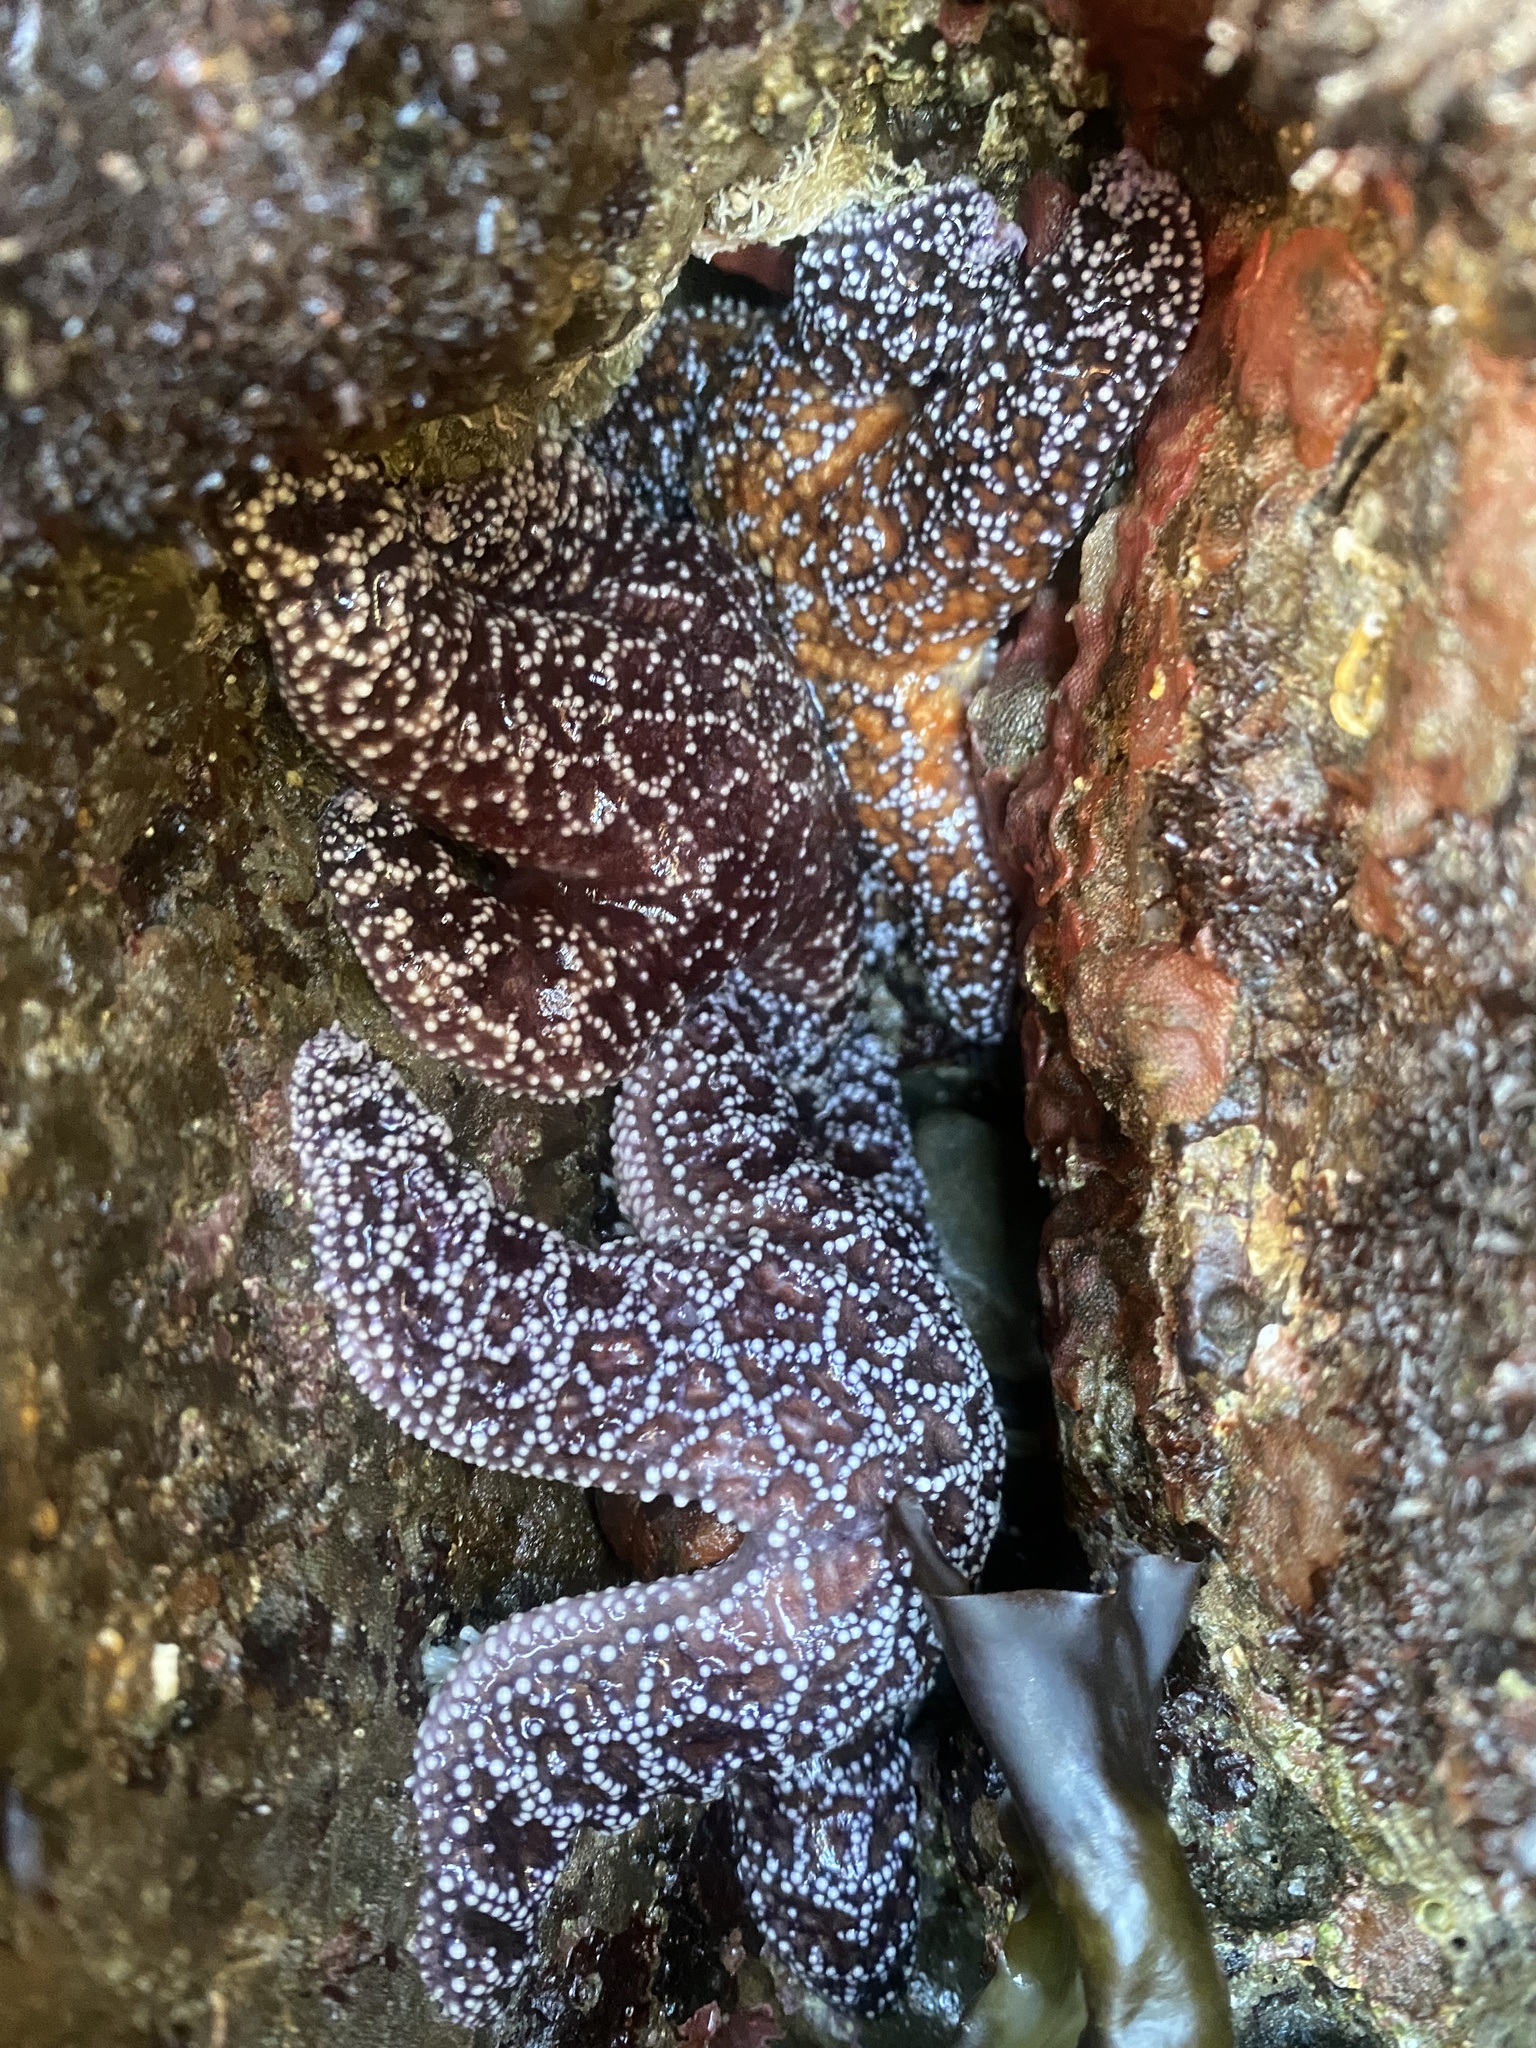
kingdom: Animalia
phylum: Echinodermata
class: Asteroidea
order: Forcipulatida
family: Asteriidae
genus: Pisaster
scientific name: Pisaster ochraceus
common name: Ochre stars
